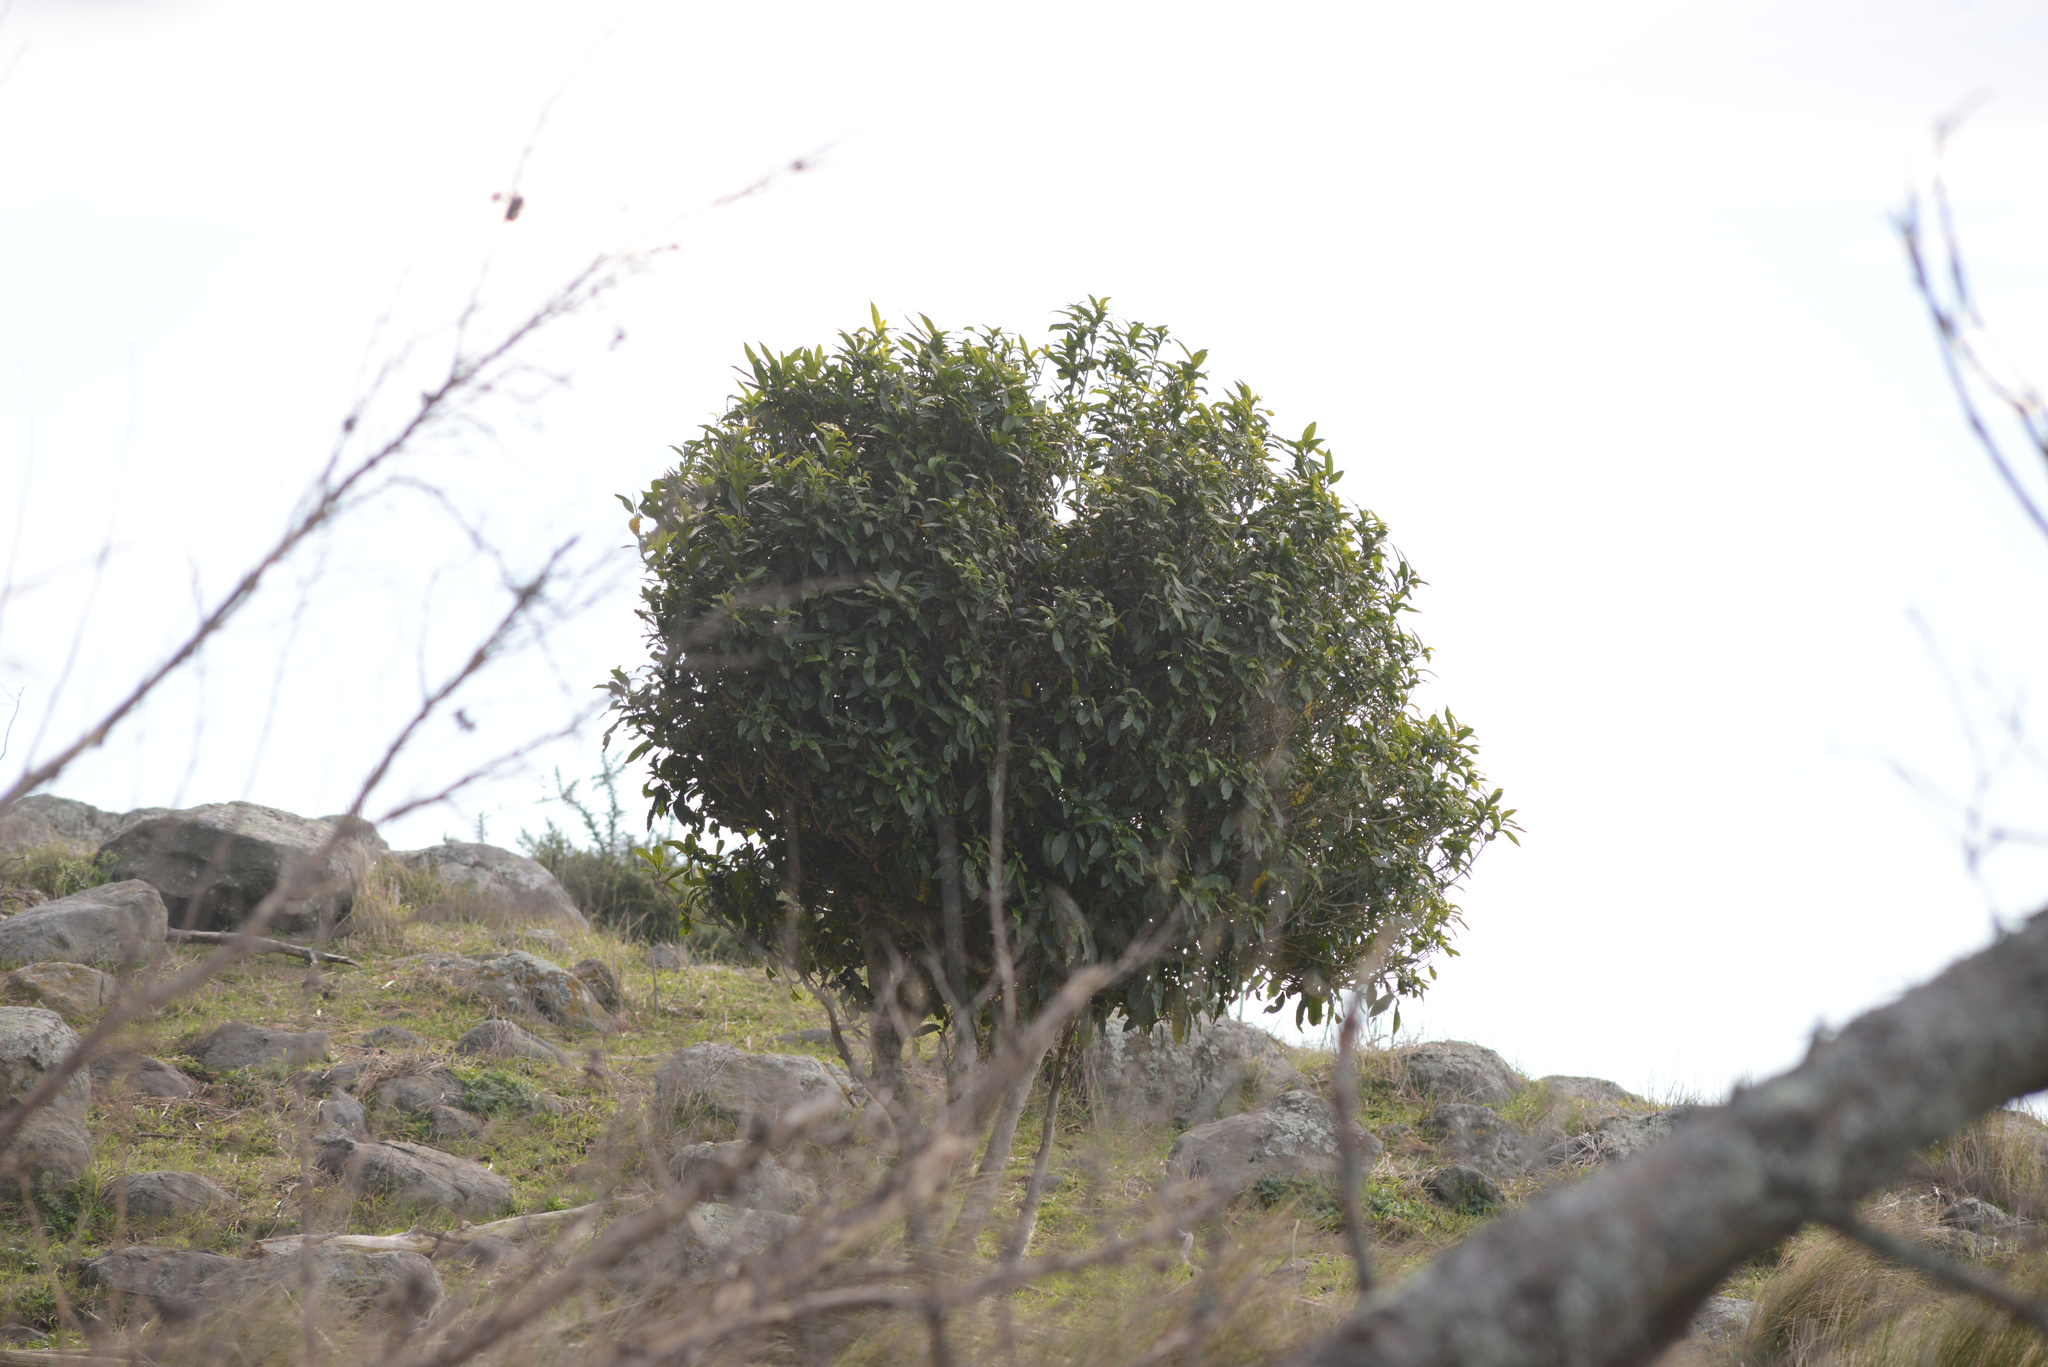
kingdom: Plantae
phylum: Tracheophyta
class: Magnoliopsida
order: Malpighiales
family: Violaceae
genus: Melicytus
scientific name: Melicytus ramiflorus
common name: Mahoe
